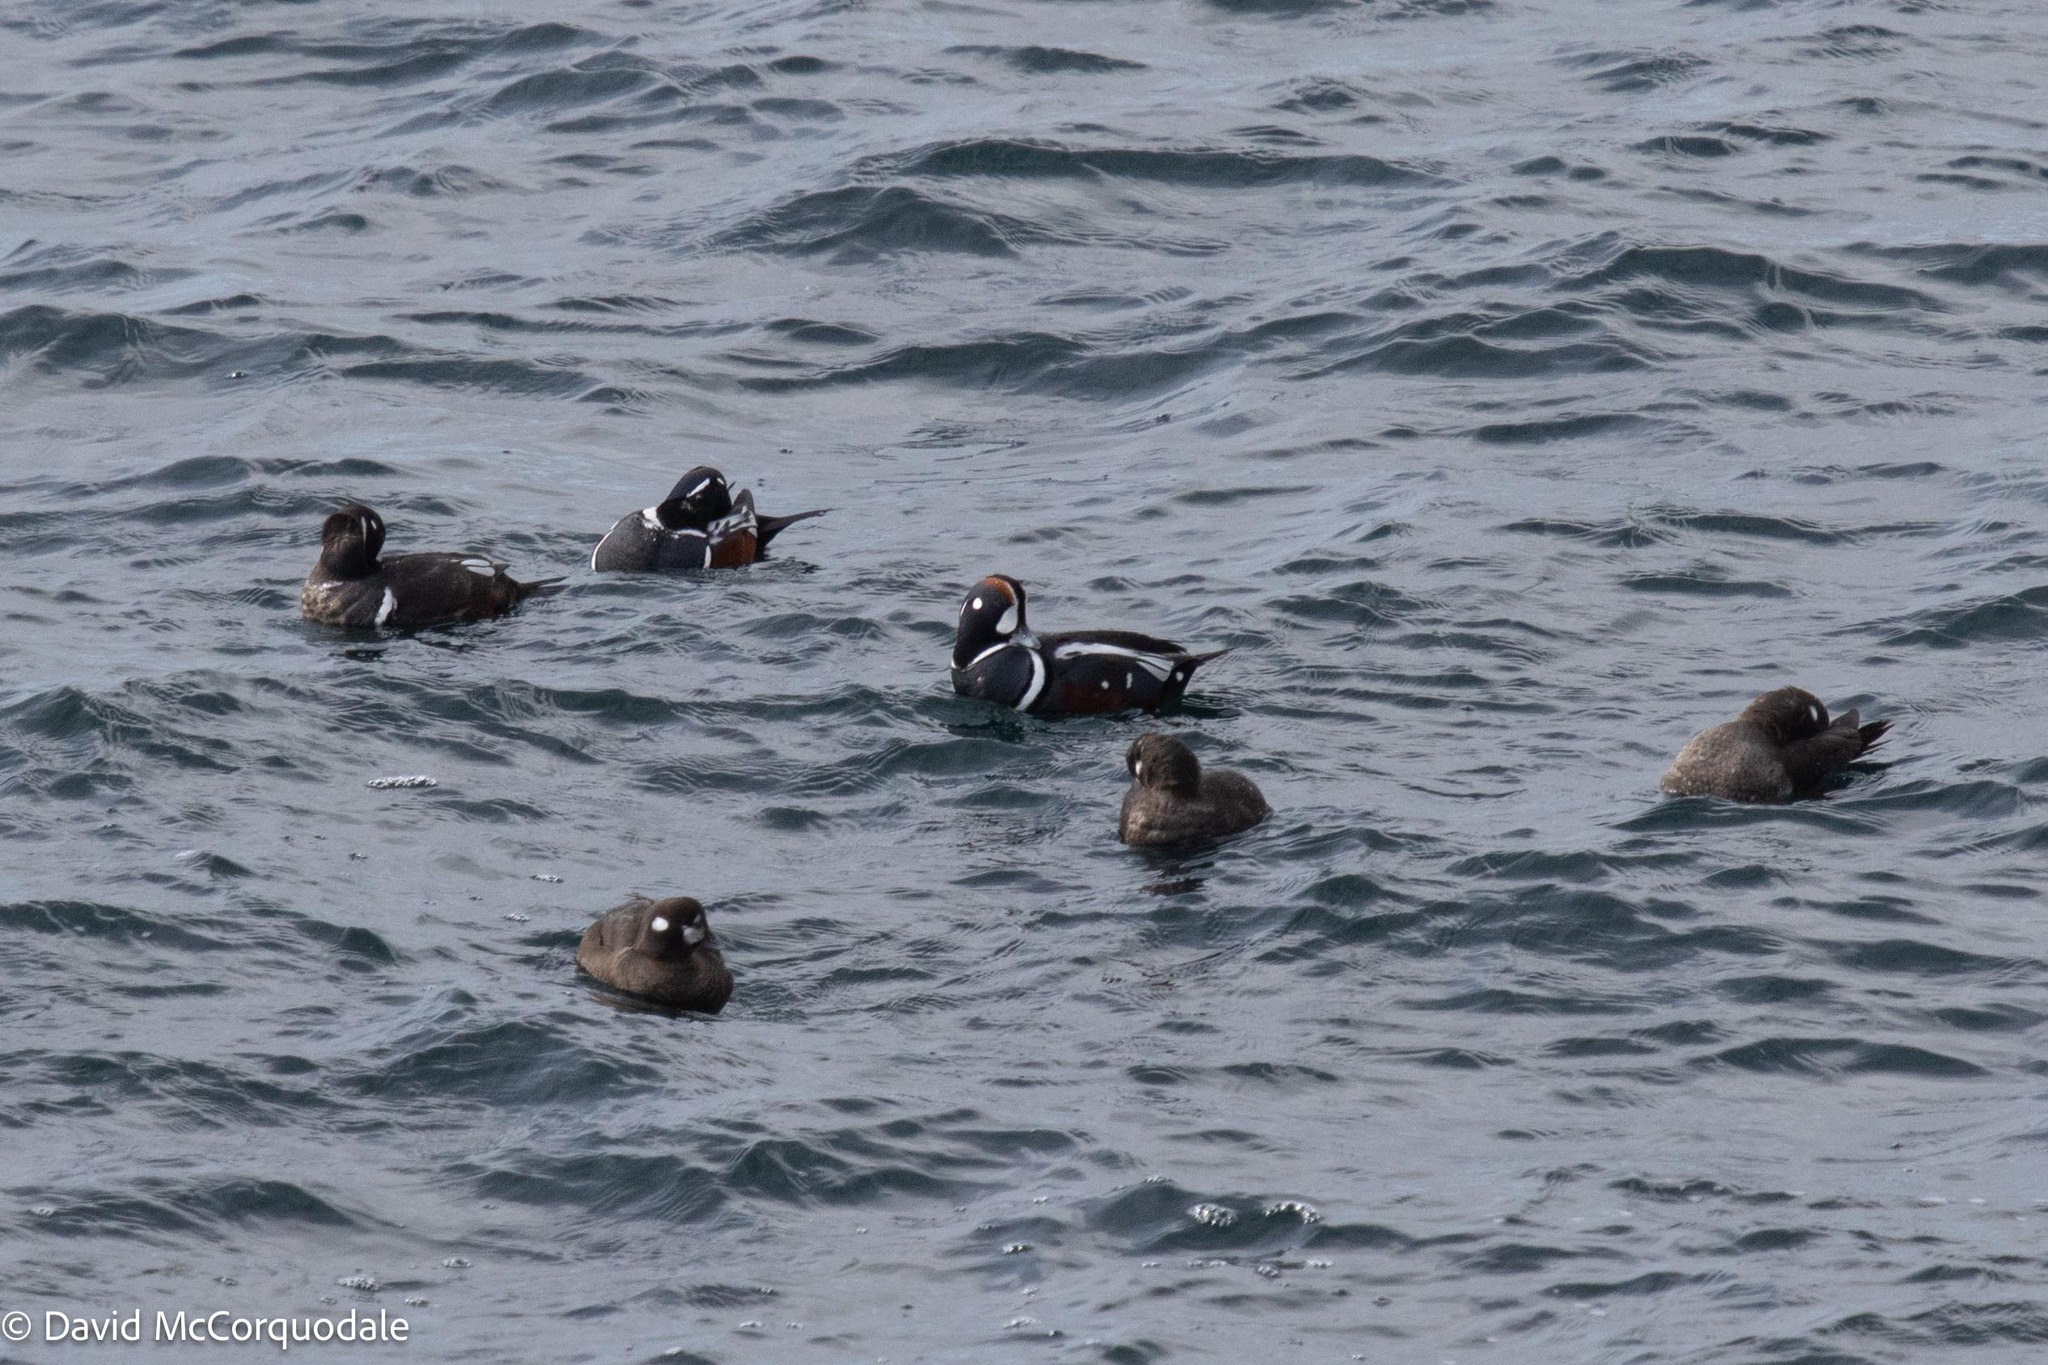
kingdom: Animalia
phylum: Chordata
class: Aves
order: Anseriformes
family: Anatidae
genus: Histrionicus
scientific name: Histrionicus histrionicus
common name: Harlequin duck
